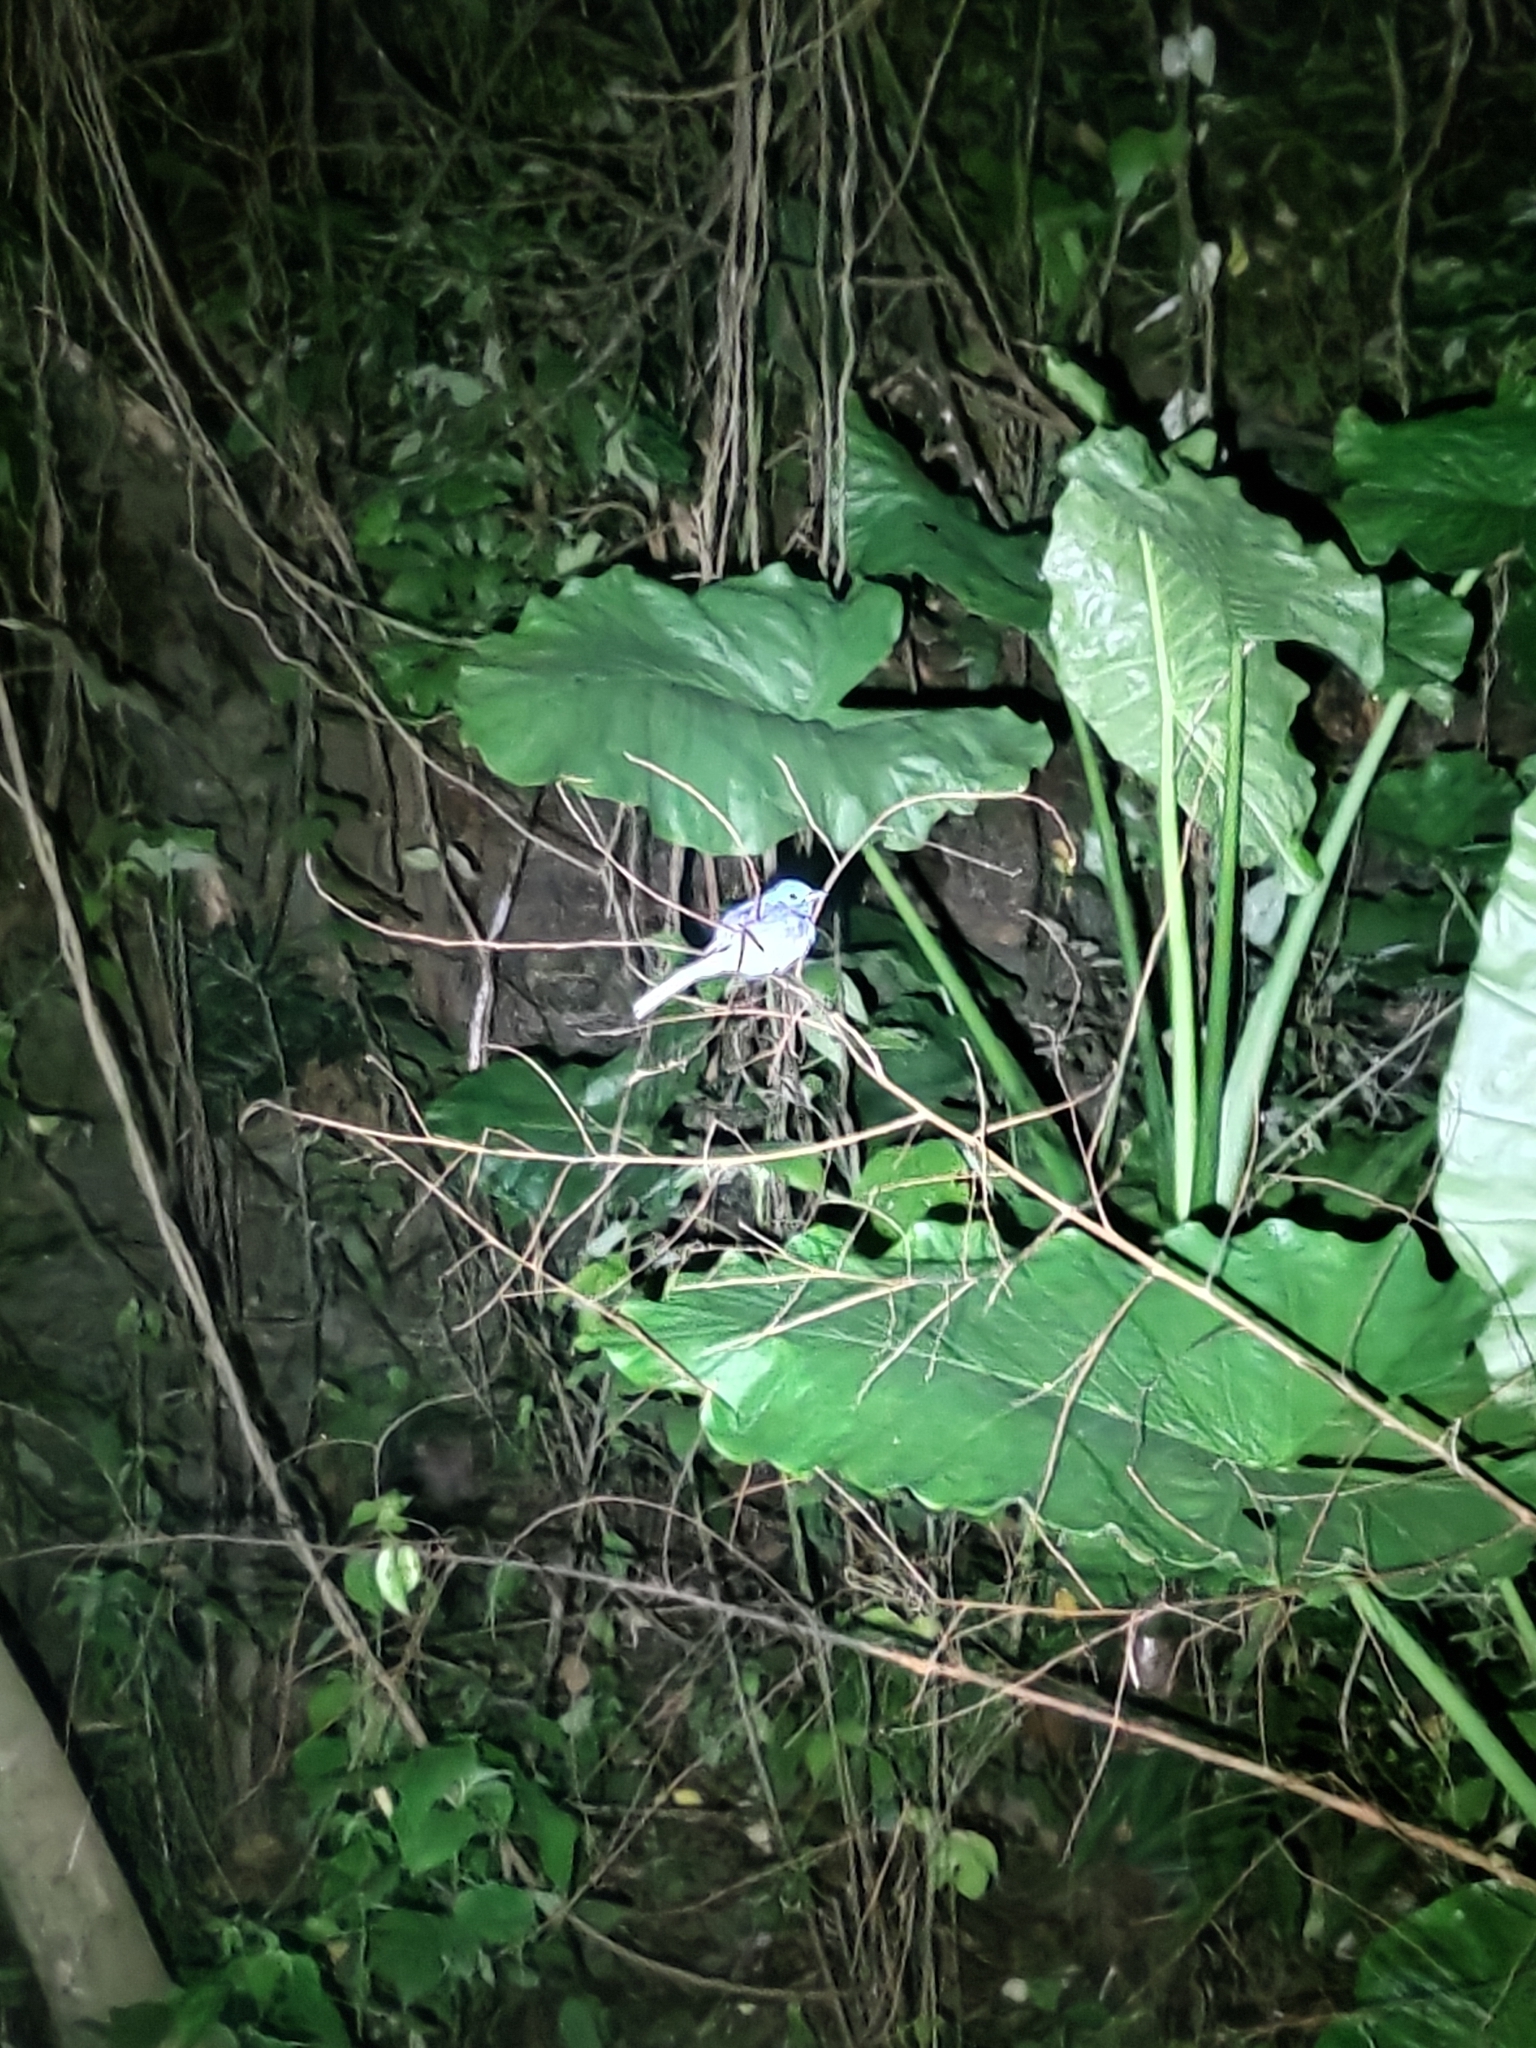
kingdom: Animalia
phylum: Chordata
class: Aves
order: Passeriformes
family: Monarchidae
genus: Hypothymis
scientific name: Hypothymis azurea
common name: Black-naped monarch
